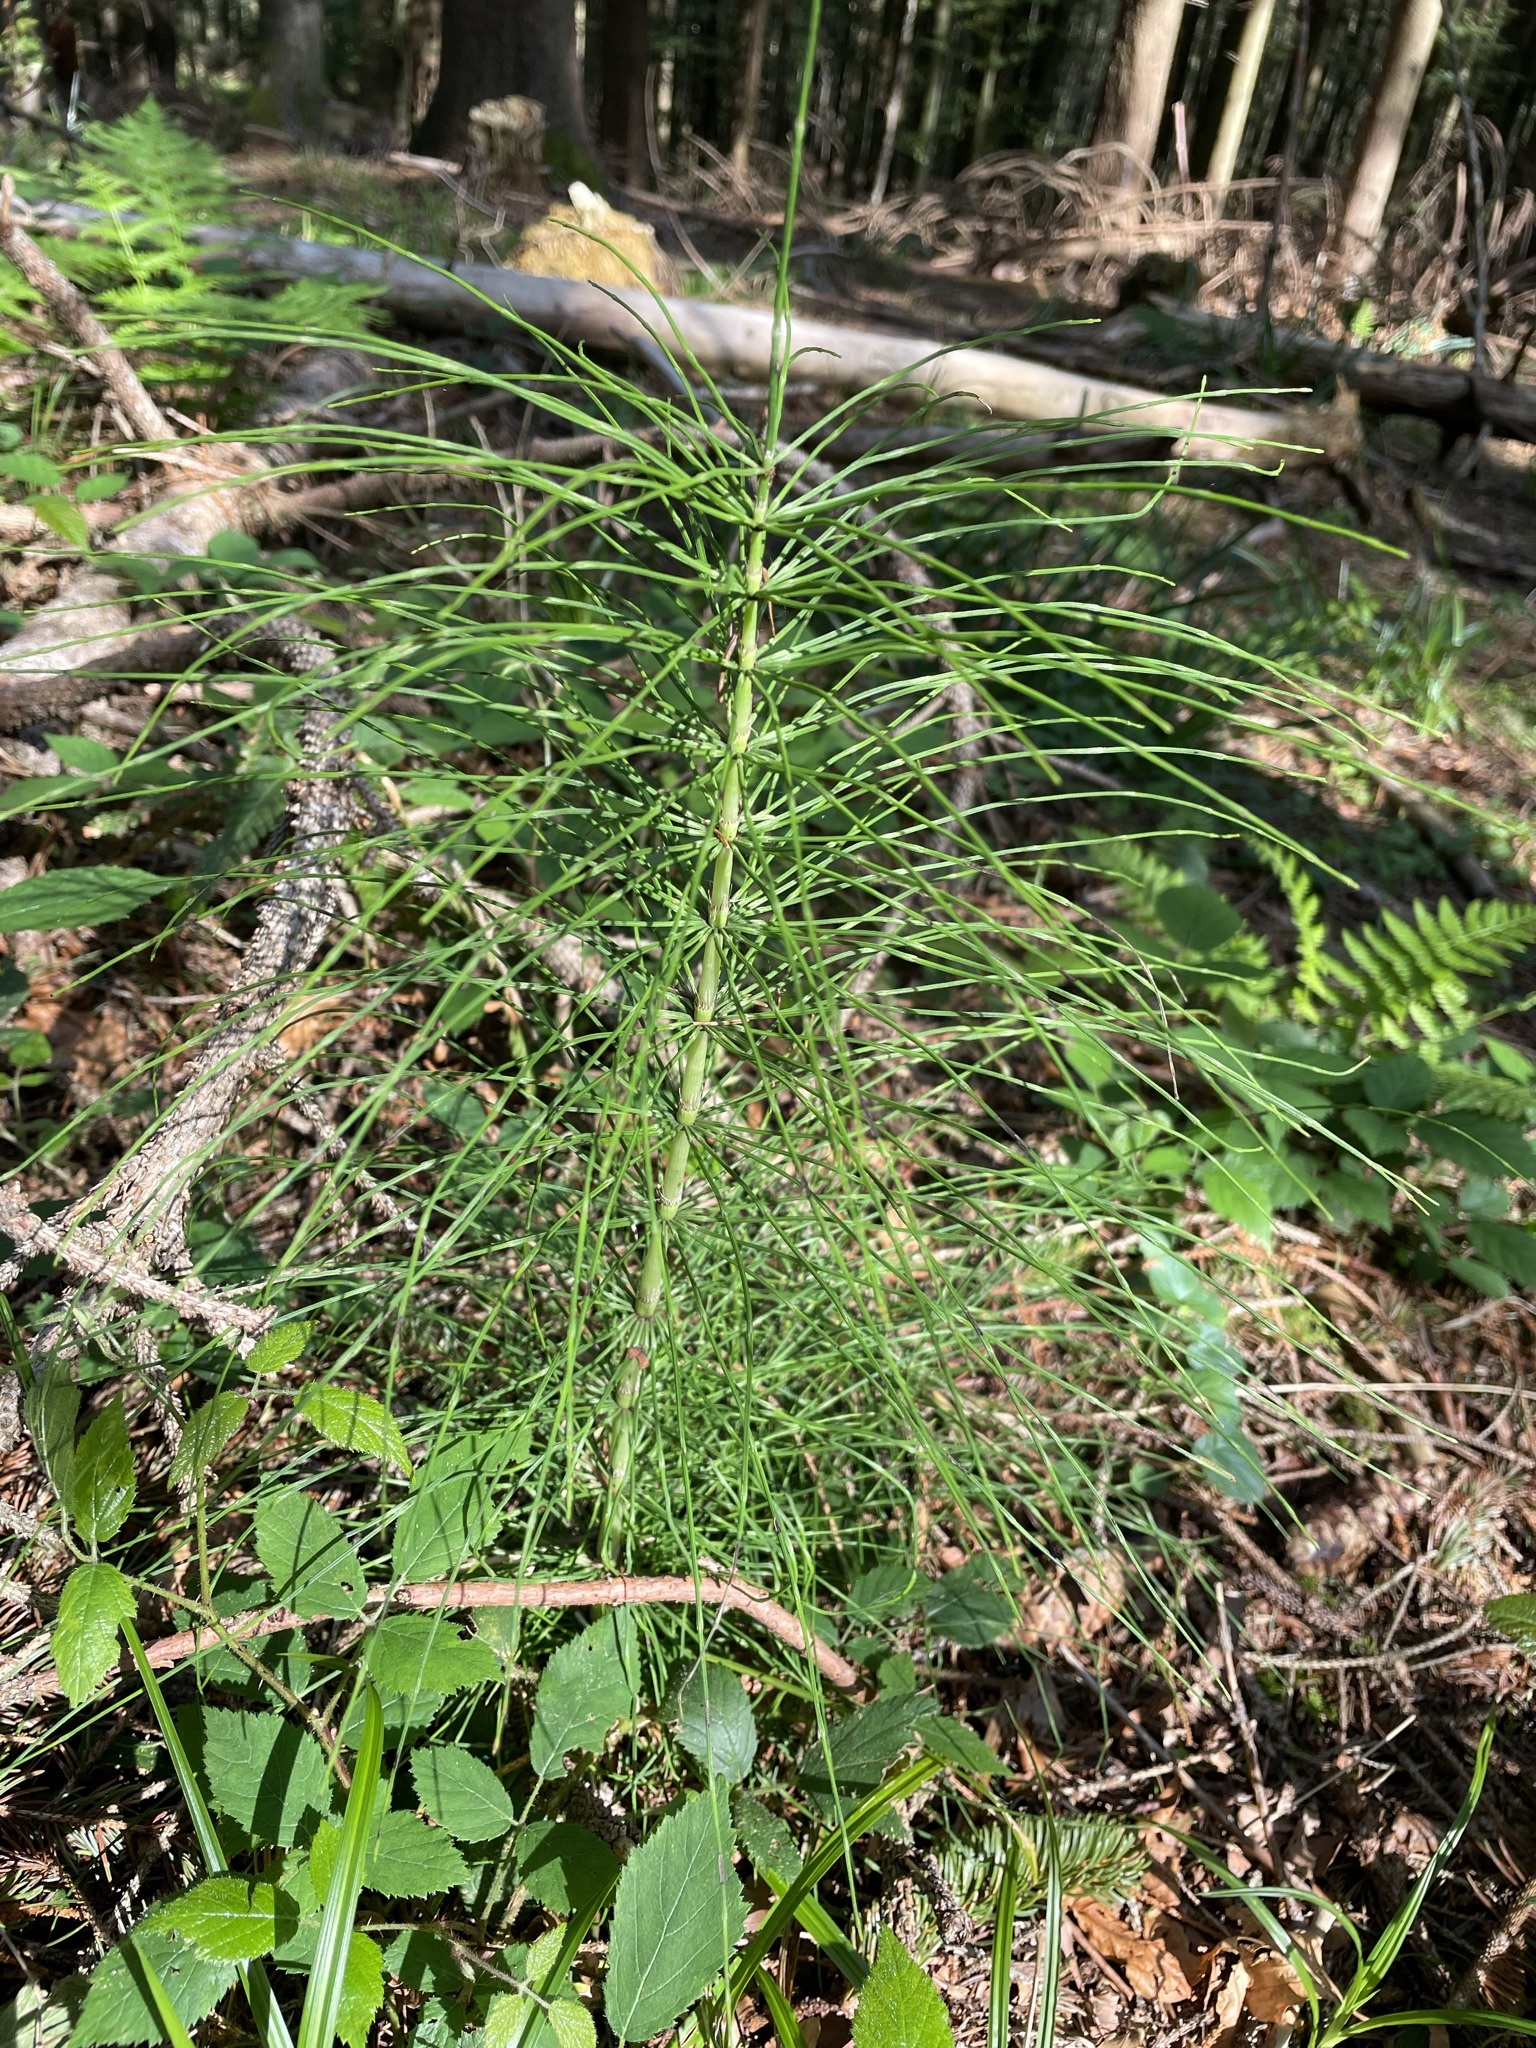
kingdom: Plantae
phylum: Tracheophyta
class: Polypodiopsida
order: Equisetales
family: Equisetaceae
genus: Equisetum
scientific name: Equisetum telmateia
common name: Great horsetail
